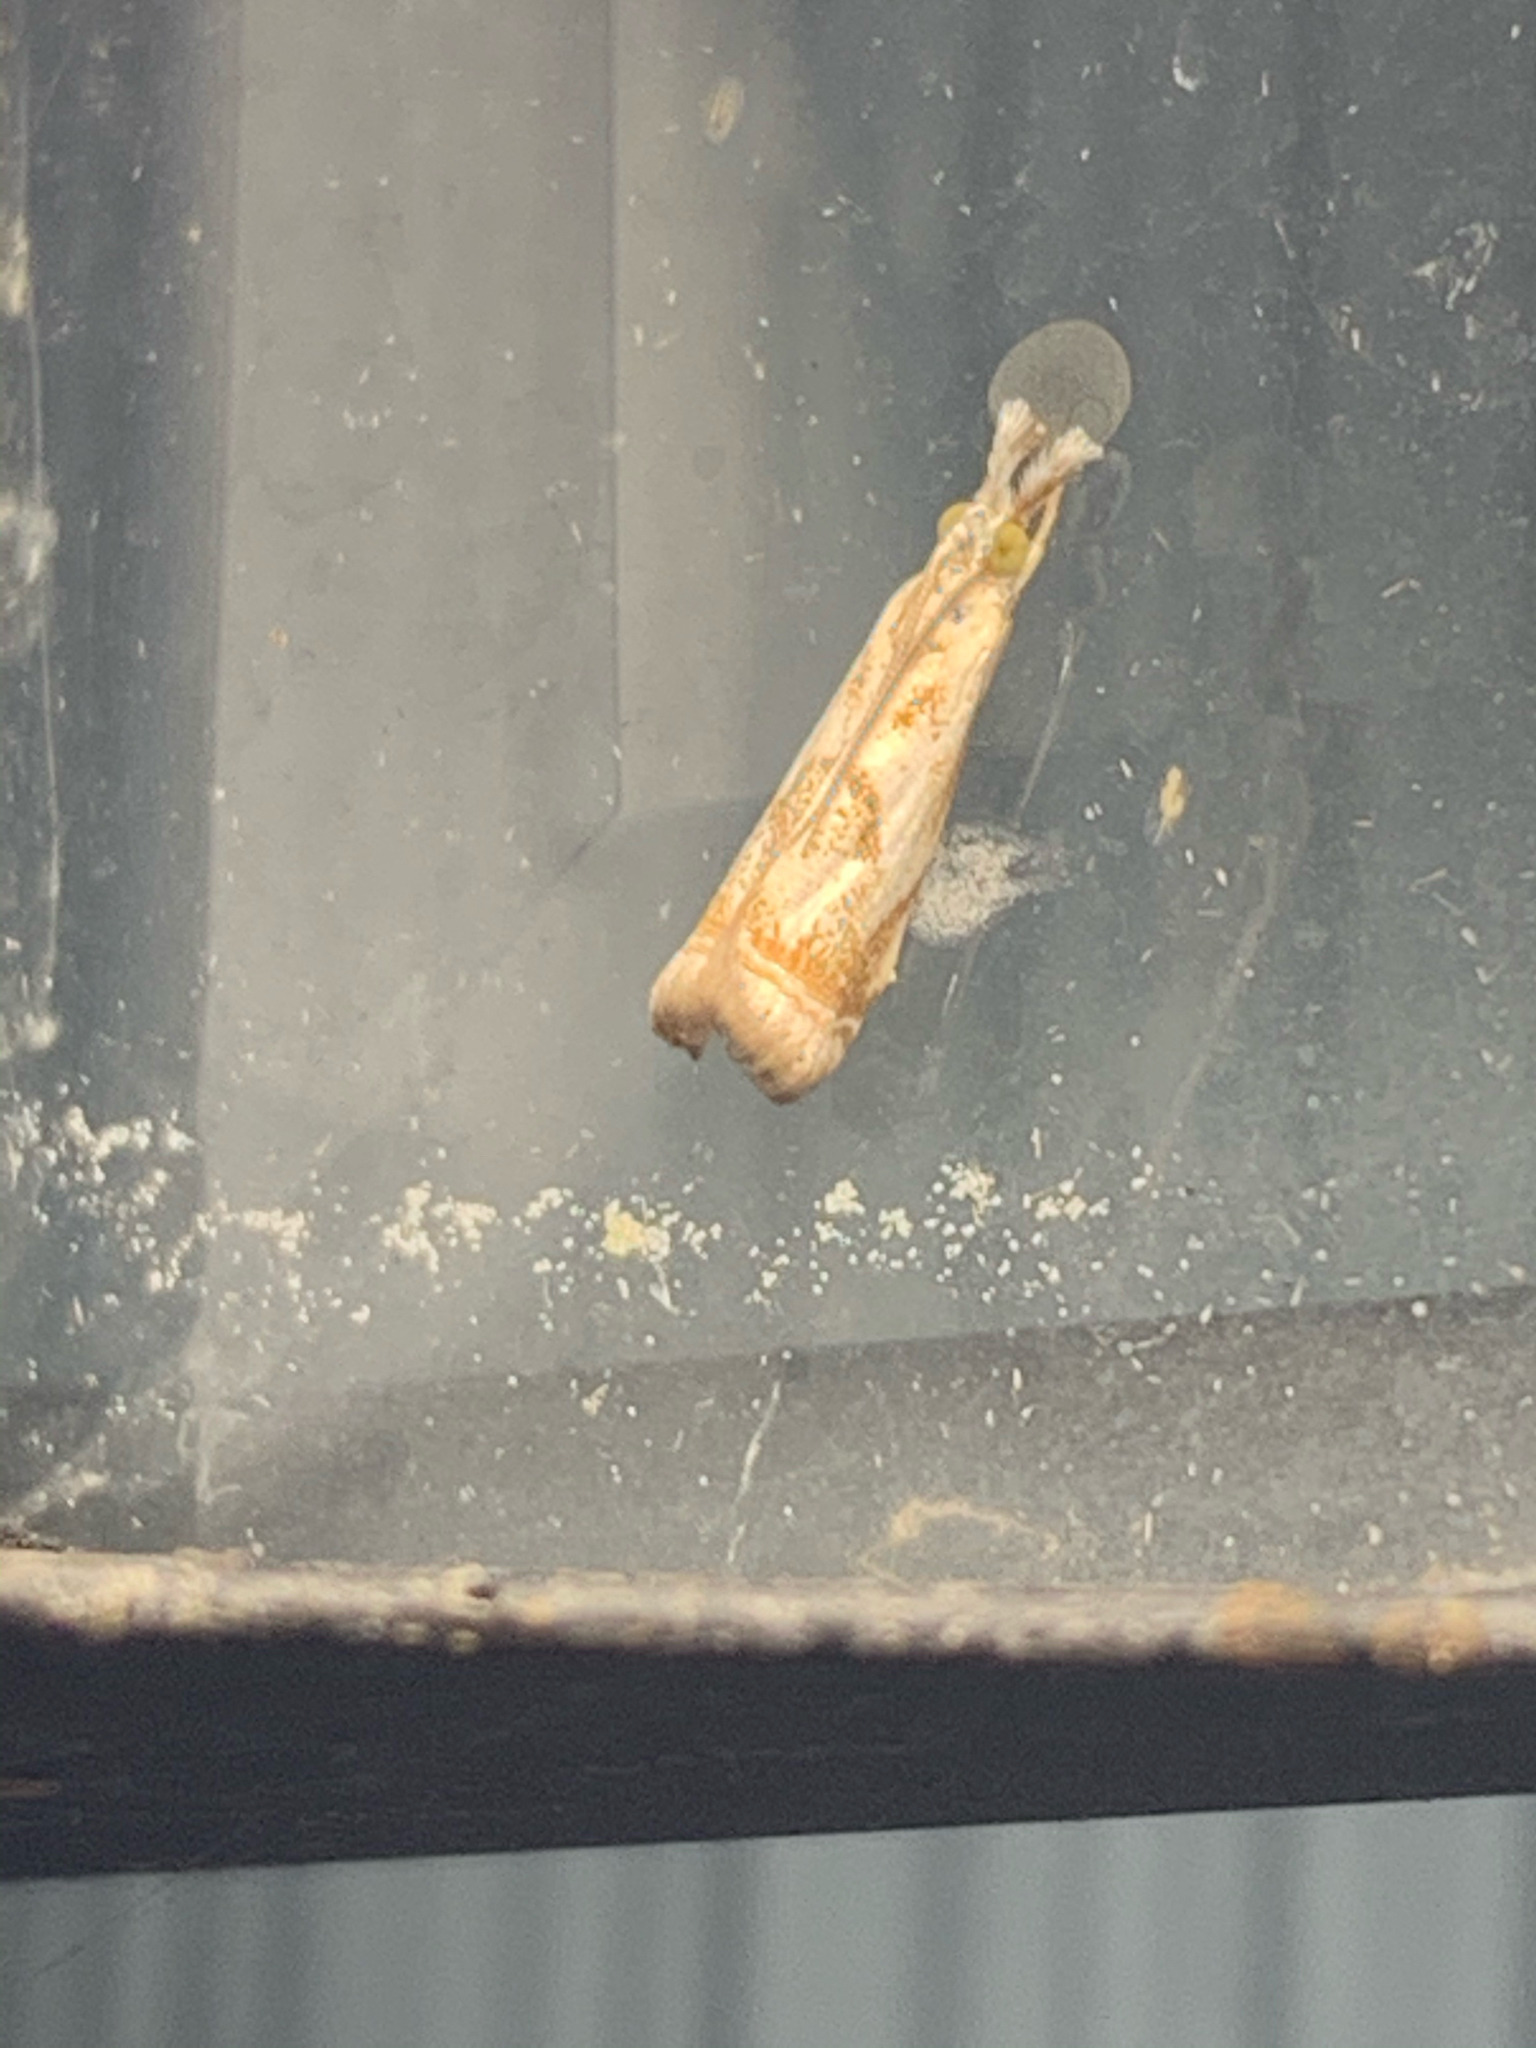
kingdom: Animalia
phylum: Arthropoda
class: Insecta
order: Lepidoptera
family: Crambidae
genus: Microcrambus
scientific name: Microcrambus elegans
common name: Elegant grass-veneer
